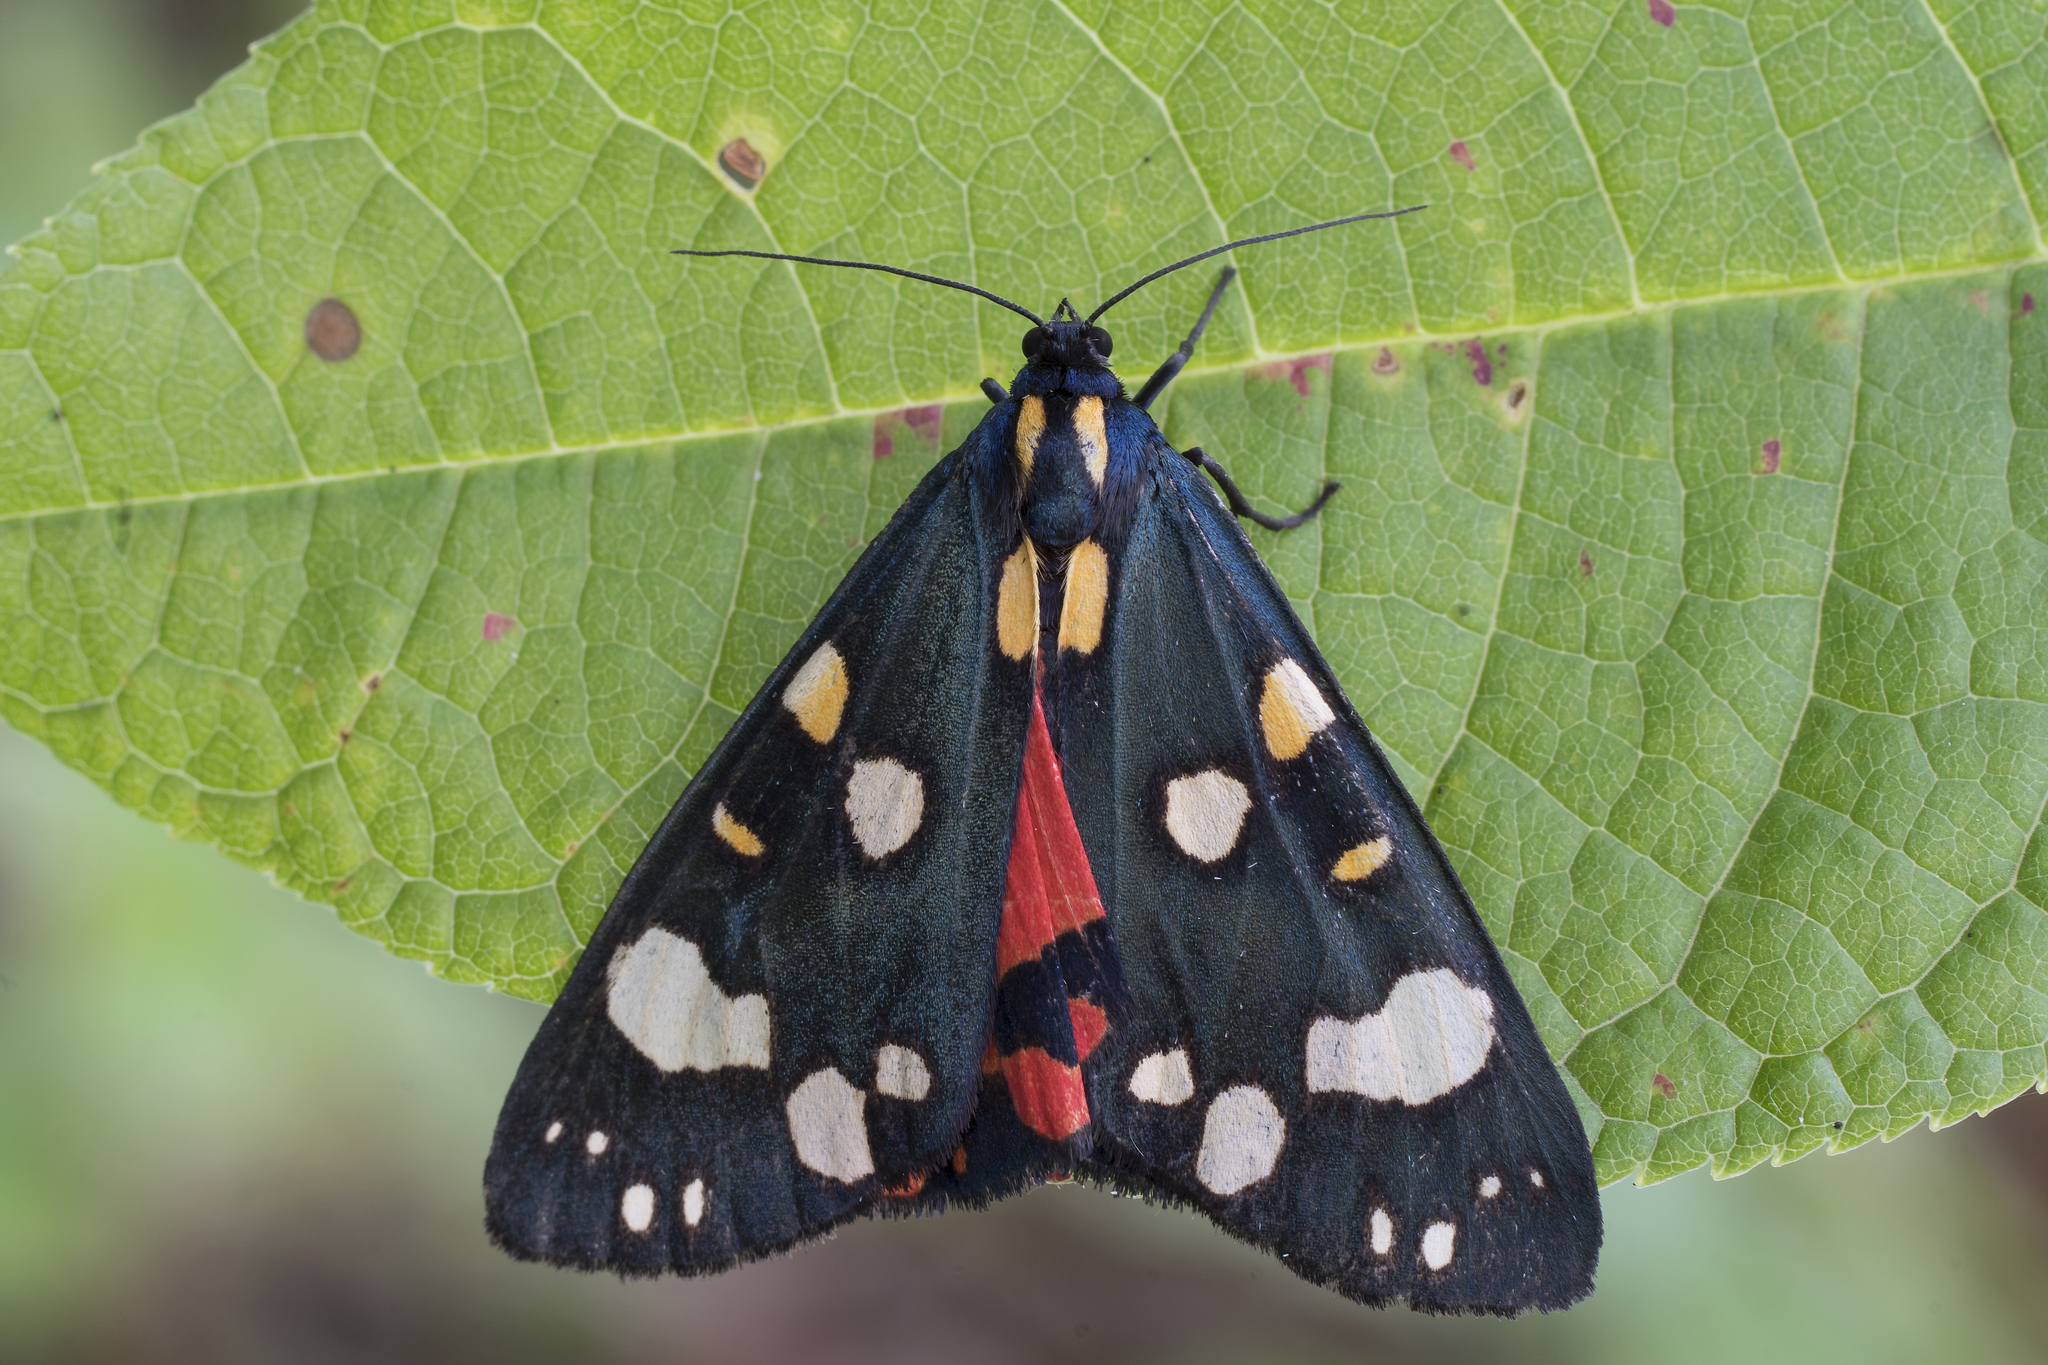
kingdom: Animalia
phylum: Arthropoda
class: Insecta
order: Lepidoptera
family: Erebidae
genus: Callimorpha
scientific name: Callimorpha dominula
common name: Scarlet tiger
